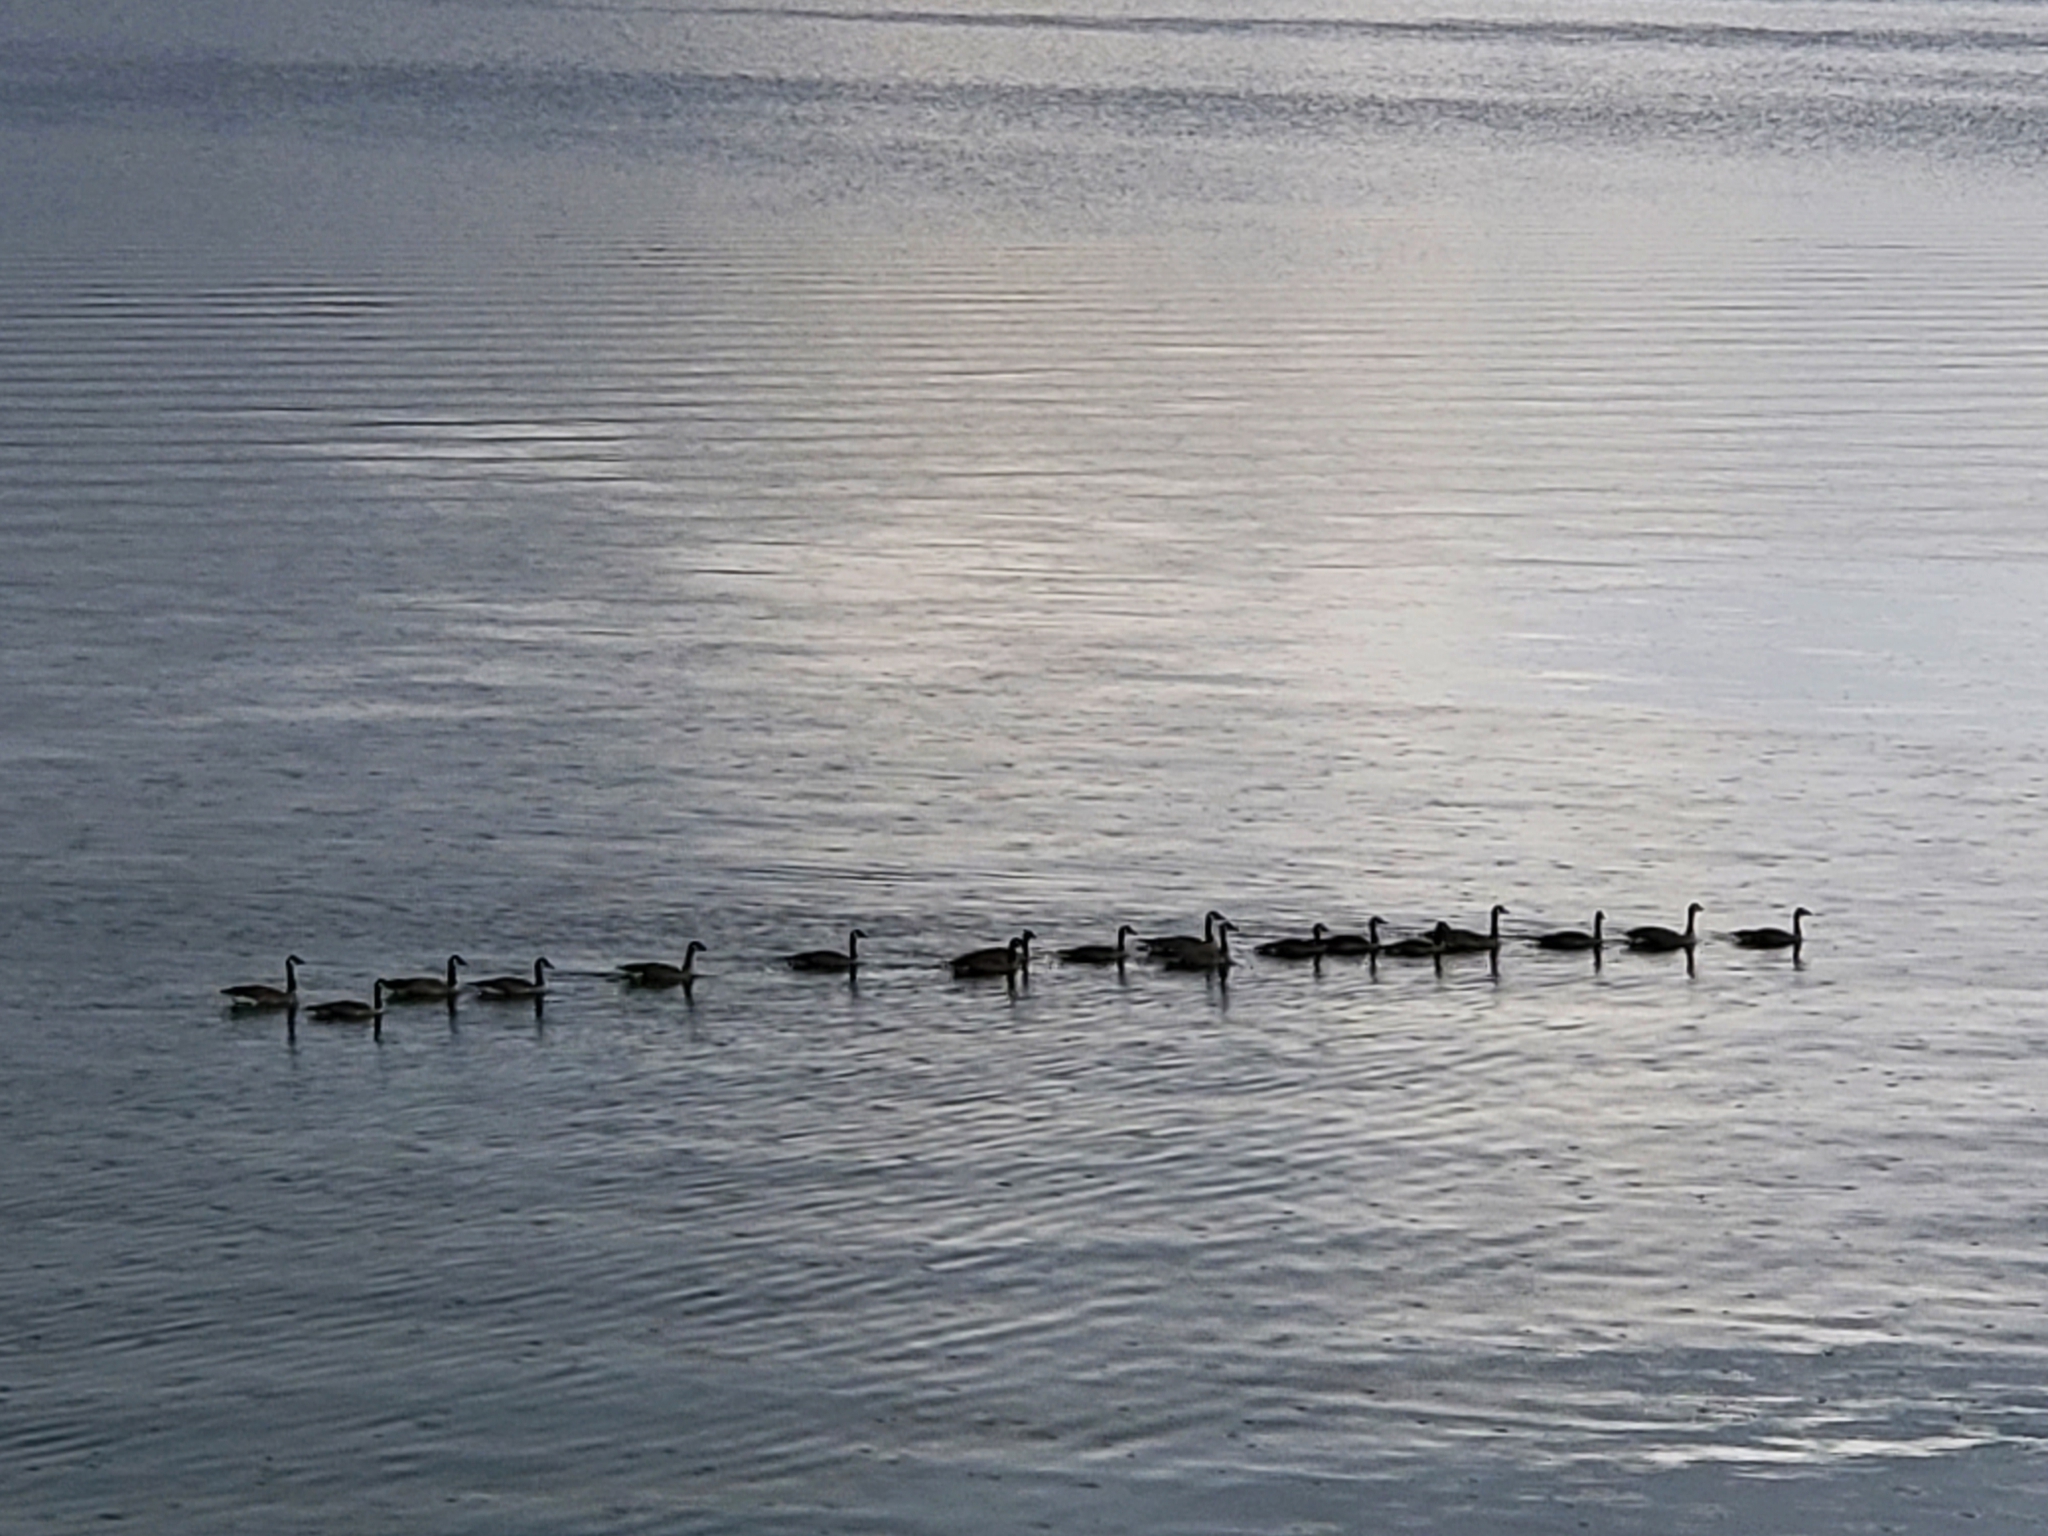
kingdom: Animalia
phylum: Chordata
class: Aves
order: Anseriformes
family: Anatidae
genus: Branta
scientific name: Branta canadensis
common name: Canada goose
